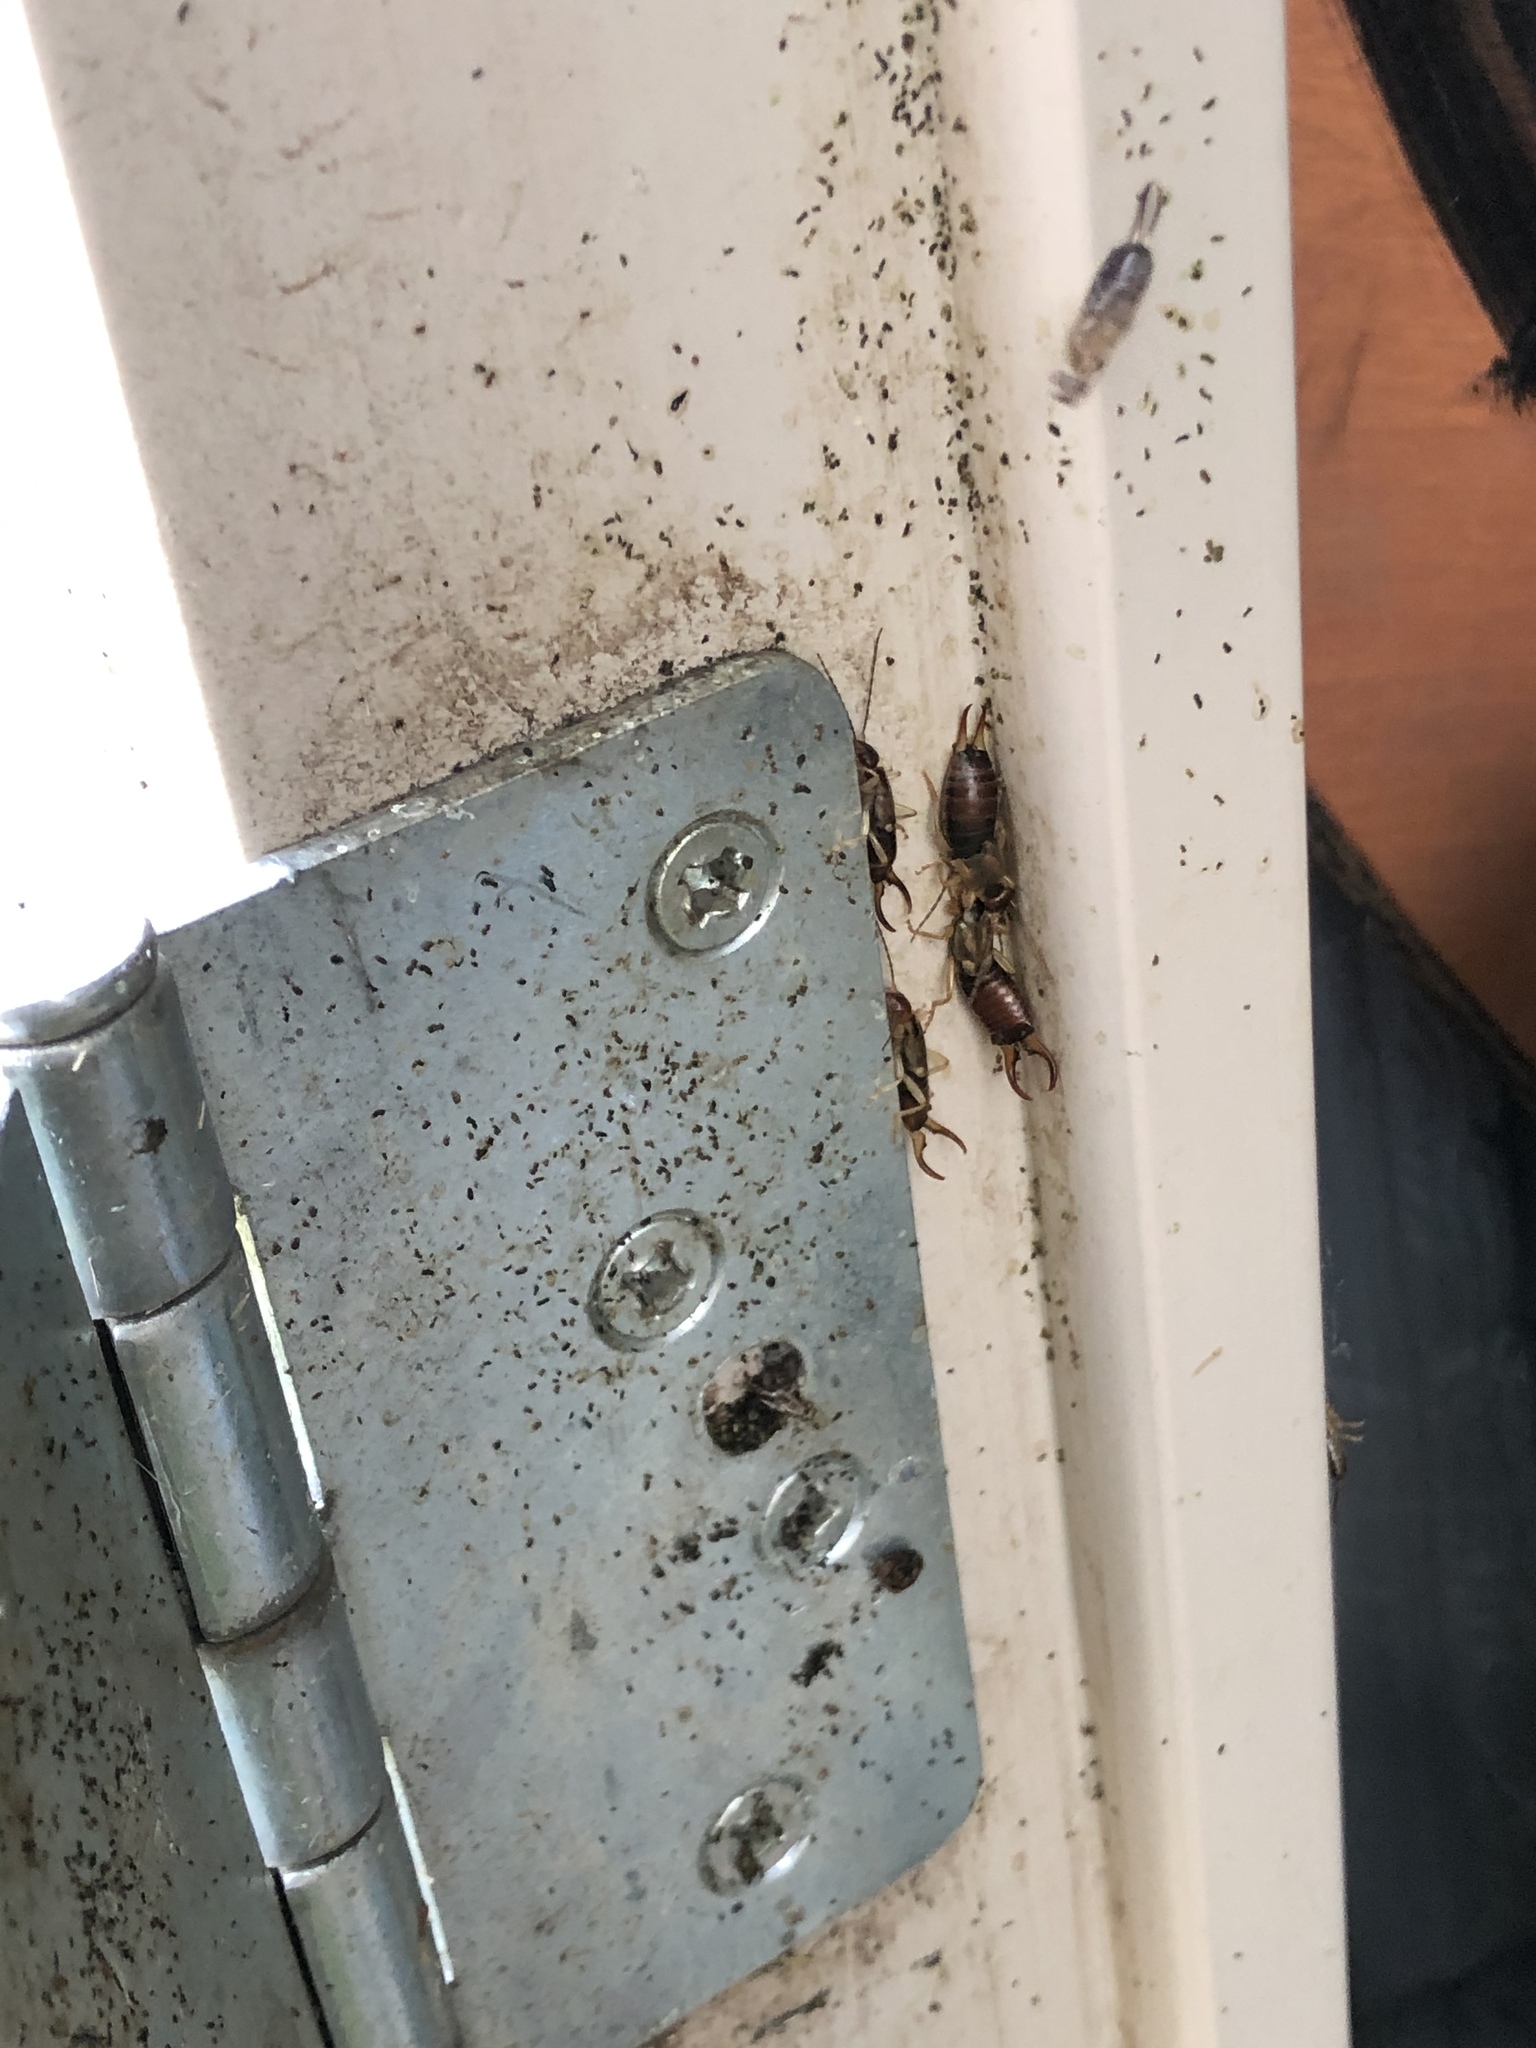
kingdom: Animalia
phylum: Arthropoda
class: Insecta
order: Dermaptera
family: Forficulidae
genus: Forficula
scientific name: Forficula dentata
